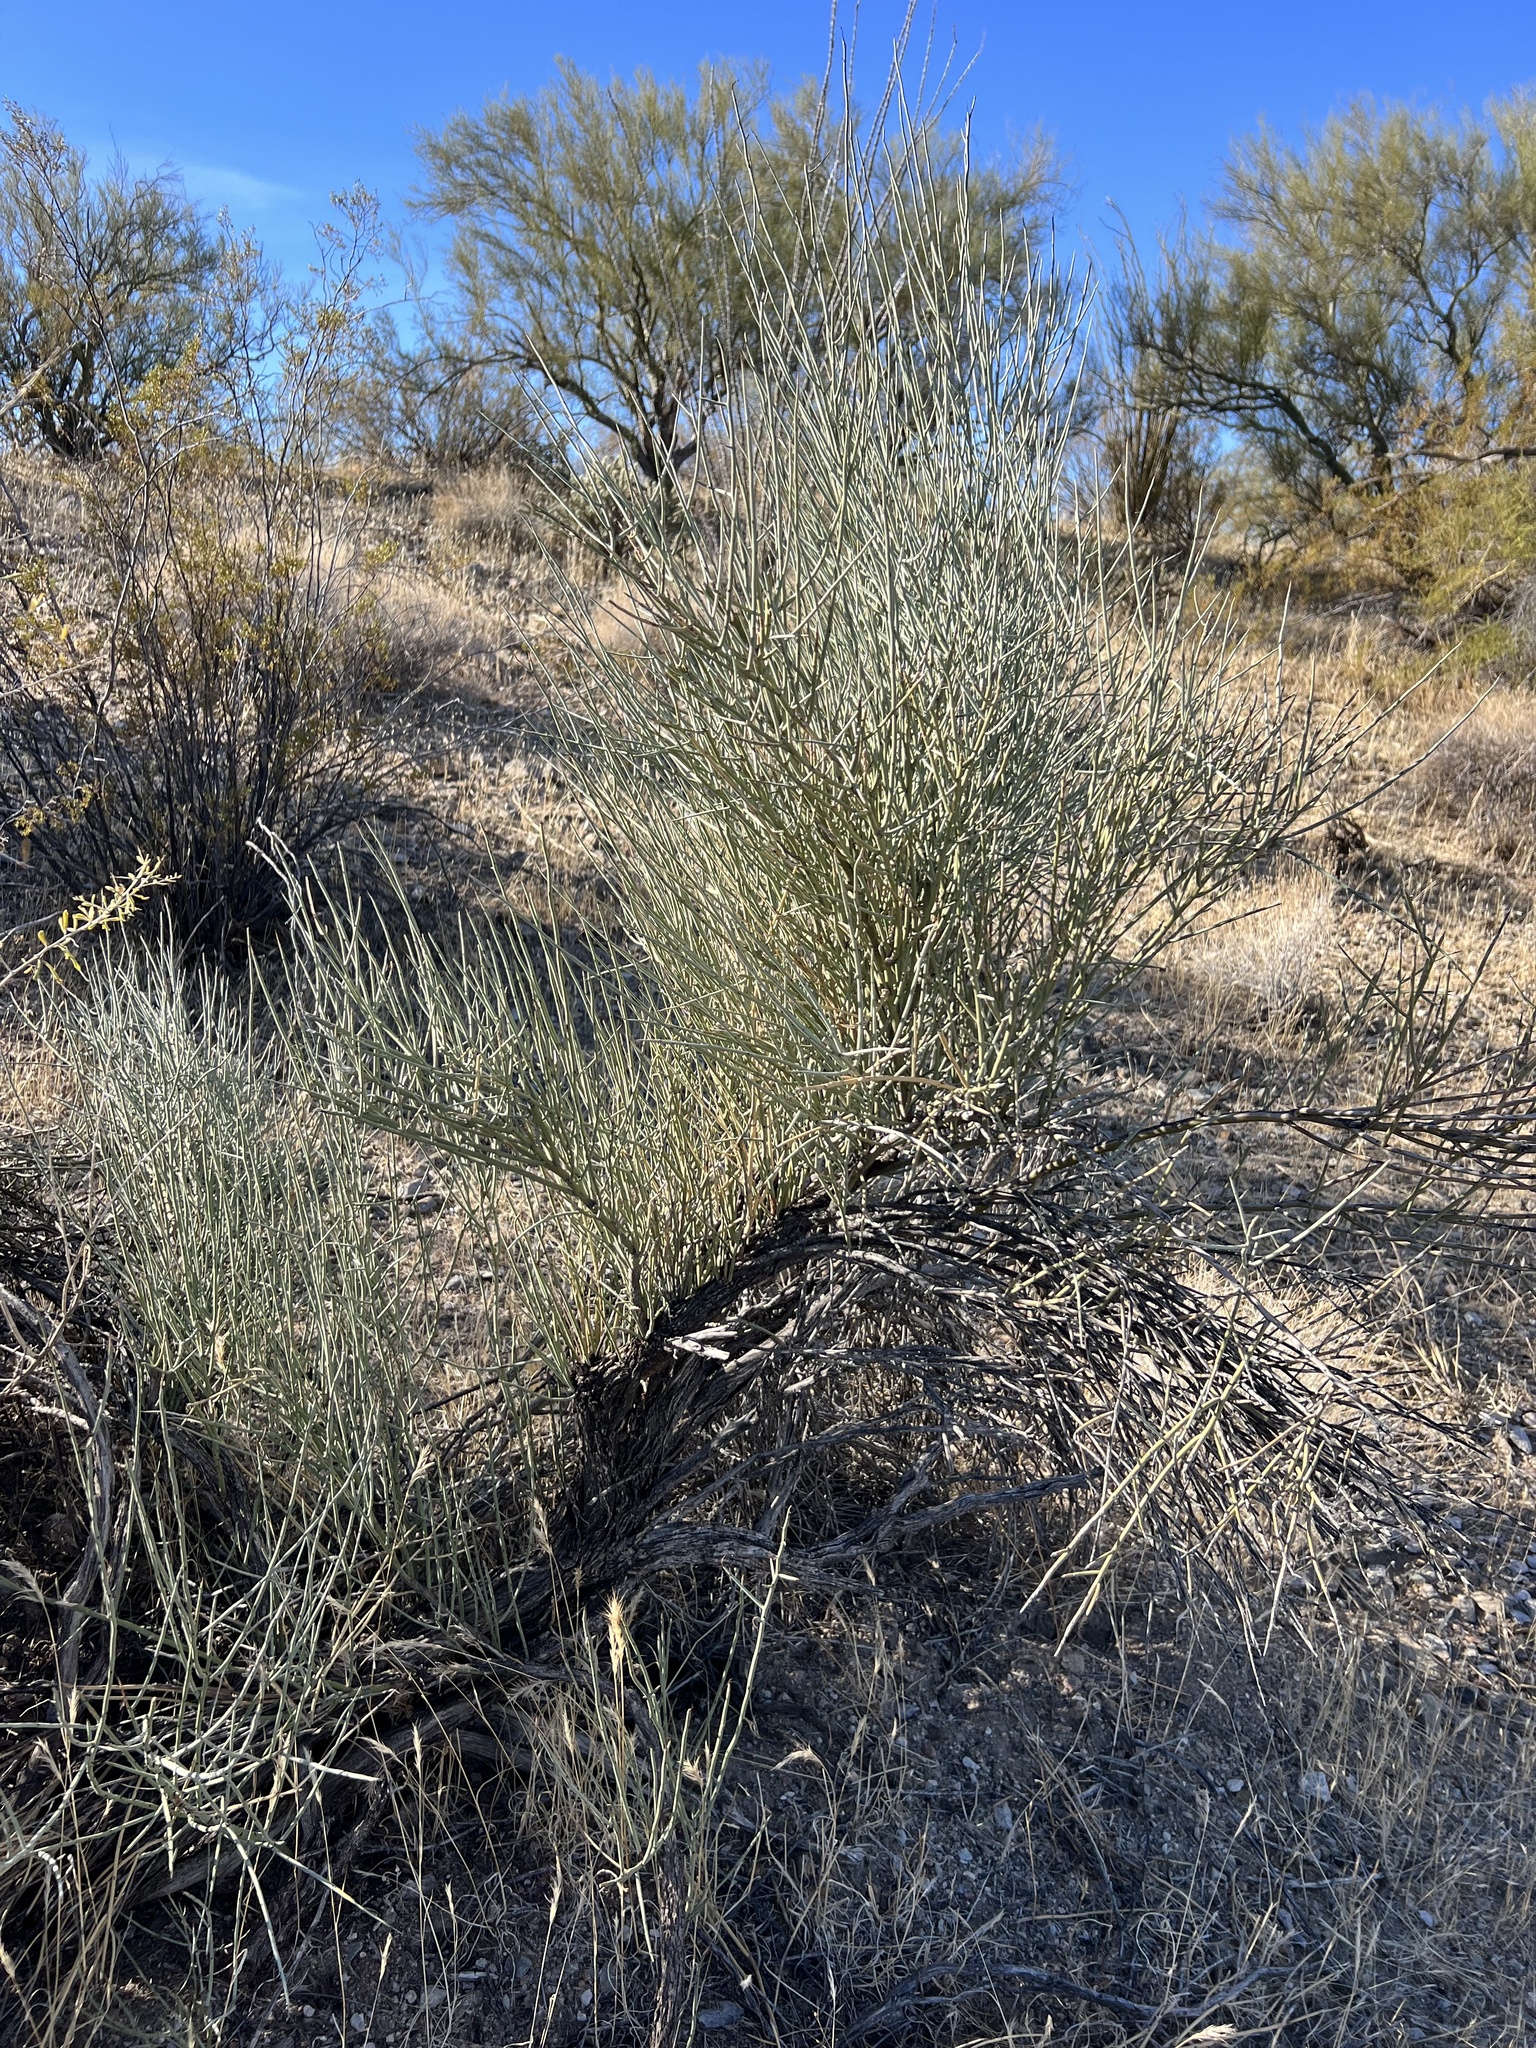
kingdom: Plantae
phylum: Tracheophyta
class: Magnoliopsida
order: Celastrales
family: Celastraceae
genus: Canotia
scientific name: Canotia holacantha
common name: Crucifixion thorns
